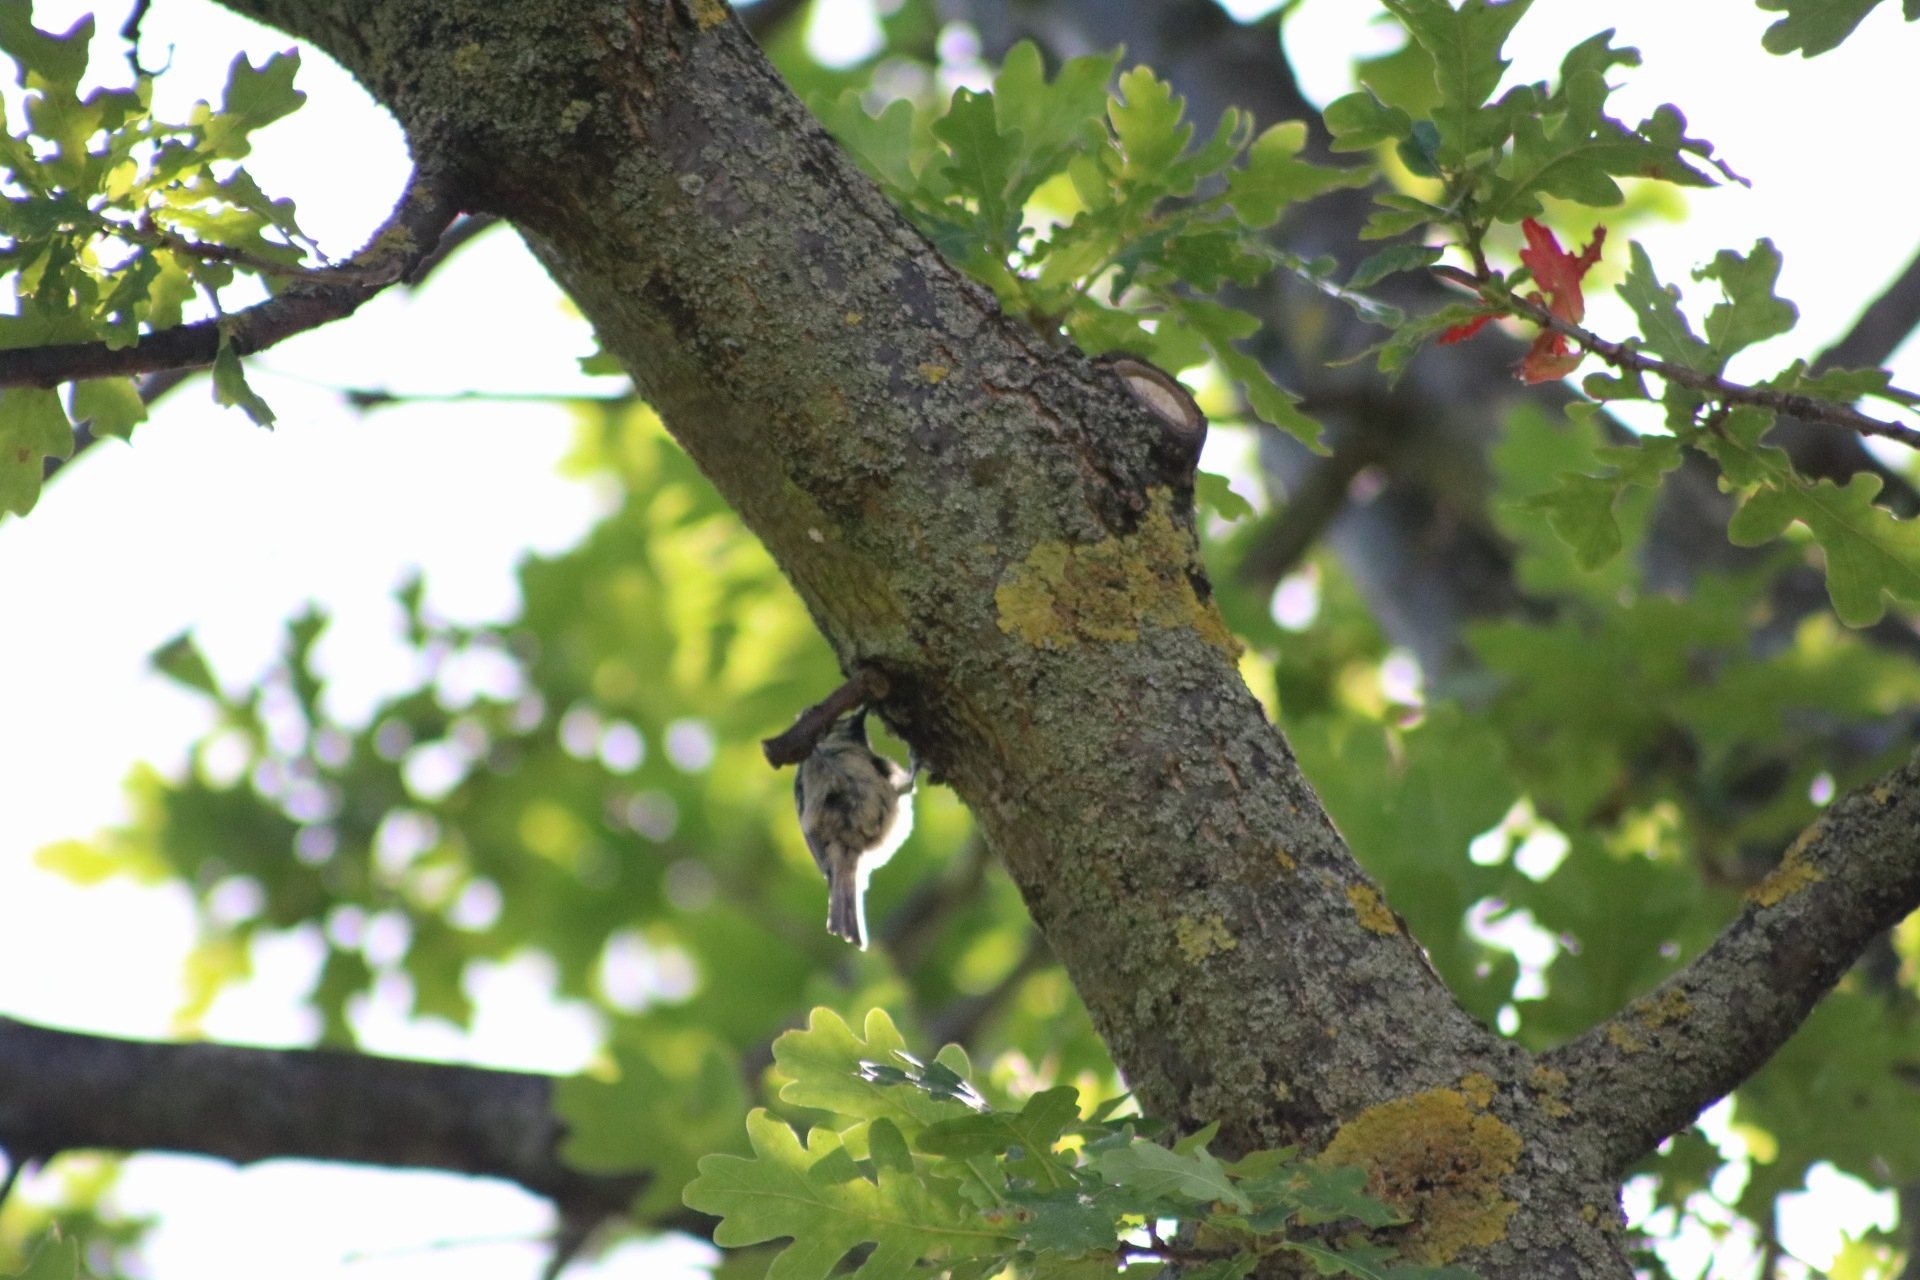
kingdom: Animalia
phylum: Chordata
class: Aves
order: Passeriformes
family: Paridae
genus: Periparus
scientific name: Periparus ater
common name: Coal tit
